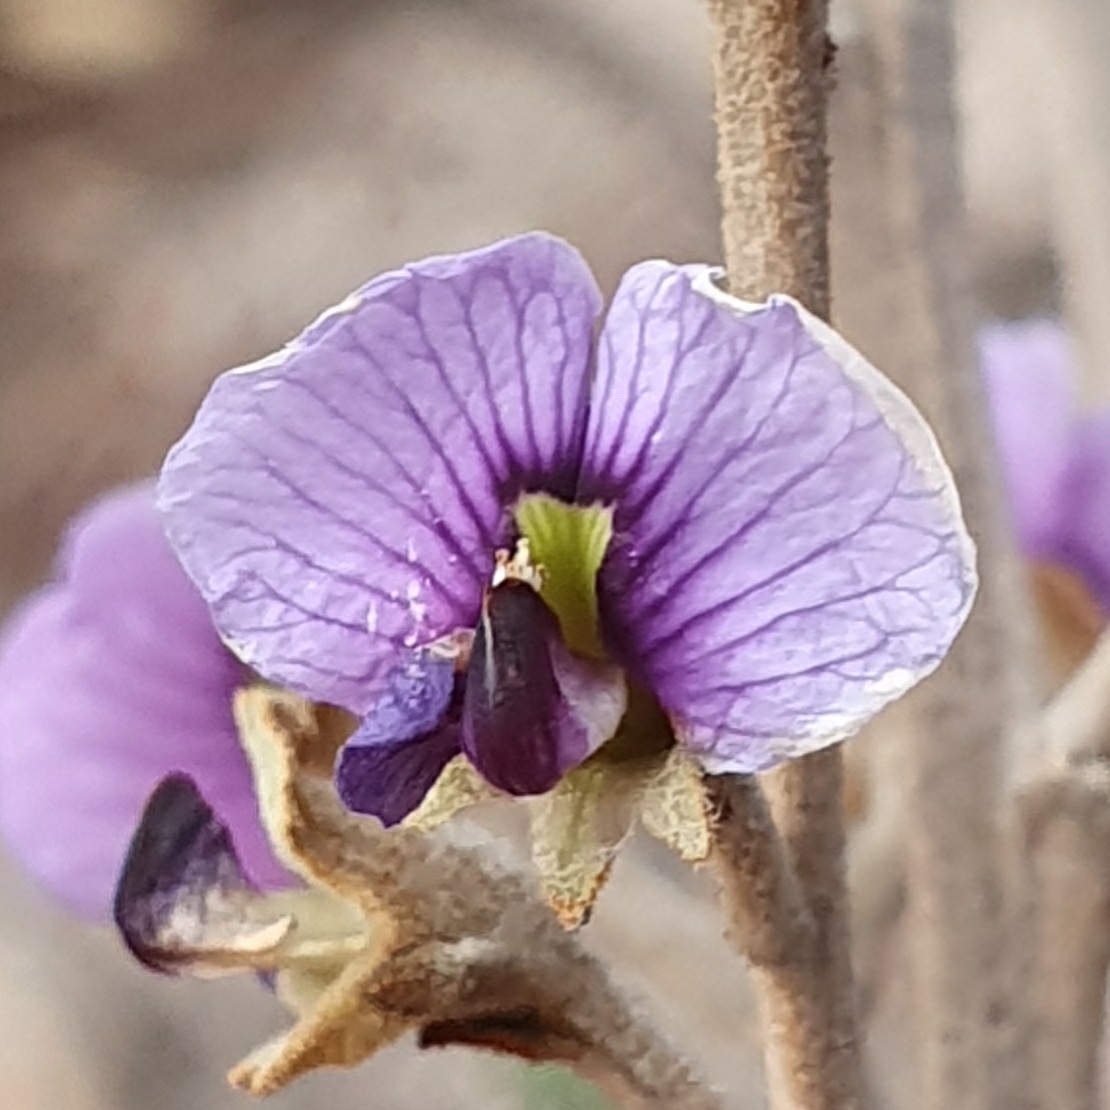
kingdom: Plantae
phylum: Tracheophyta
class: Magnoliopsida
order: Fabales
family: Fabaceae
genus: Hovea
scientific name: Hovea apiculata
